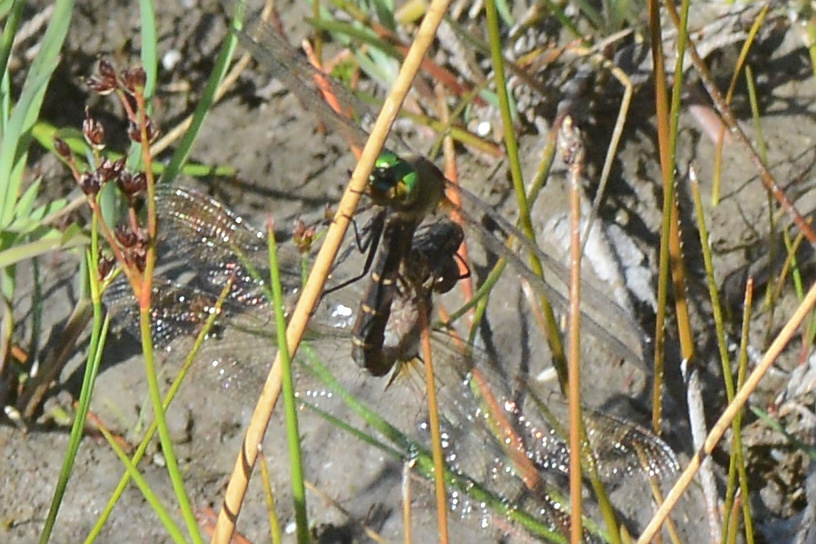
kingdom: Animalia
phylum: Arthropoda
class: Insecta
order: Odonata
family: Corduliidae
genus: Procordulia
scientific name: Procordulia smithii
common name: Ranger dragonfly
